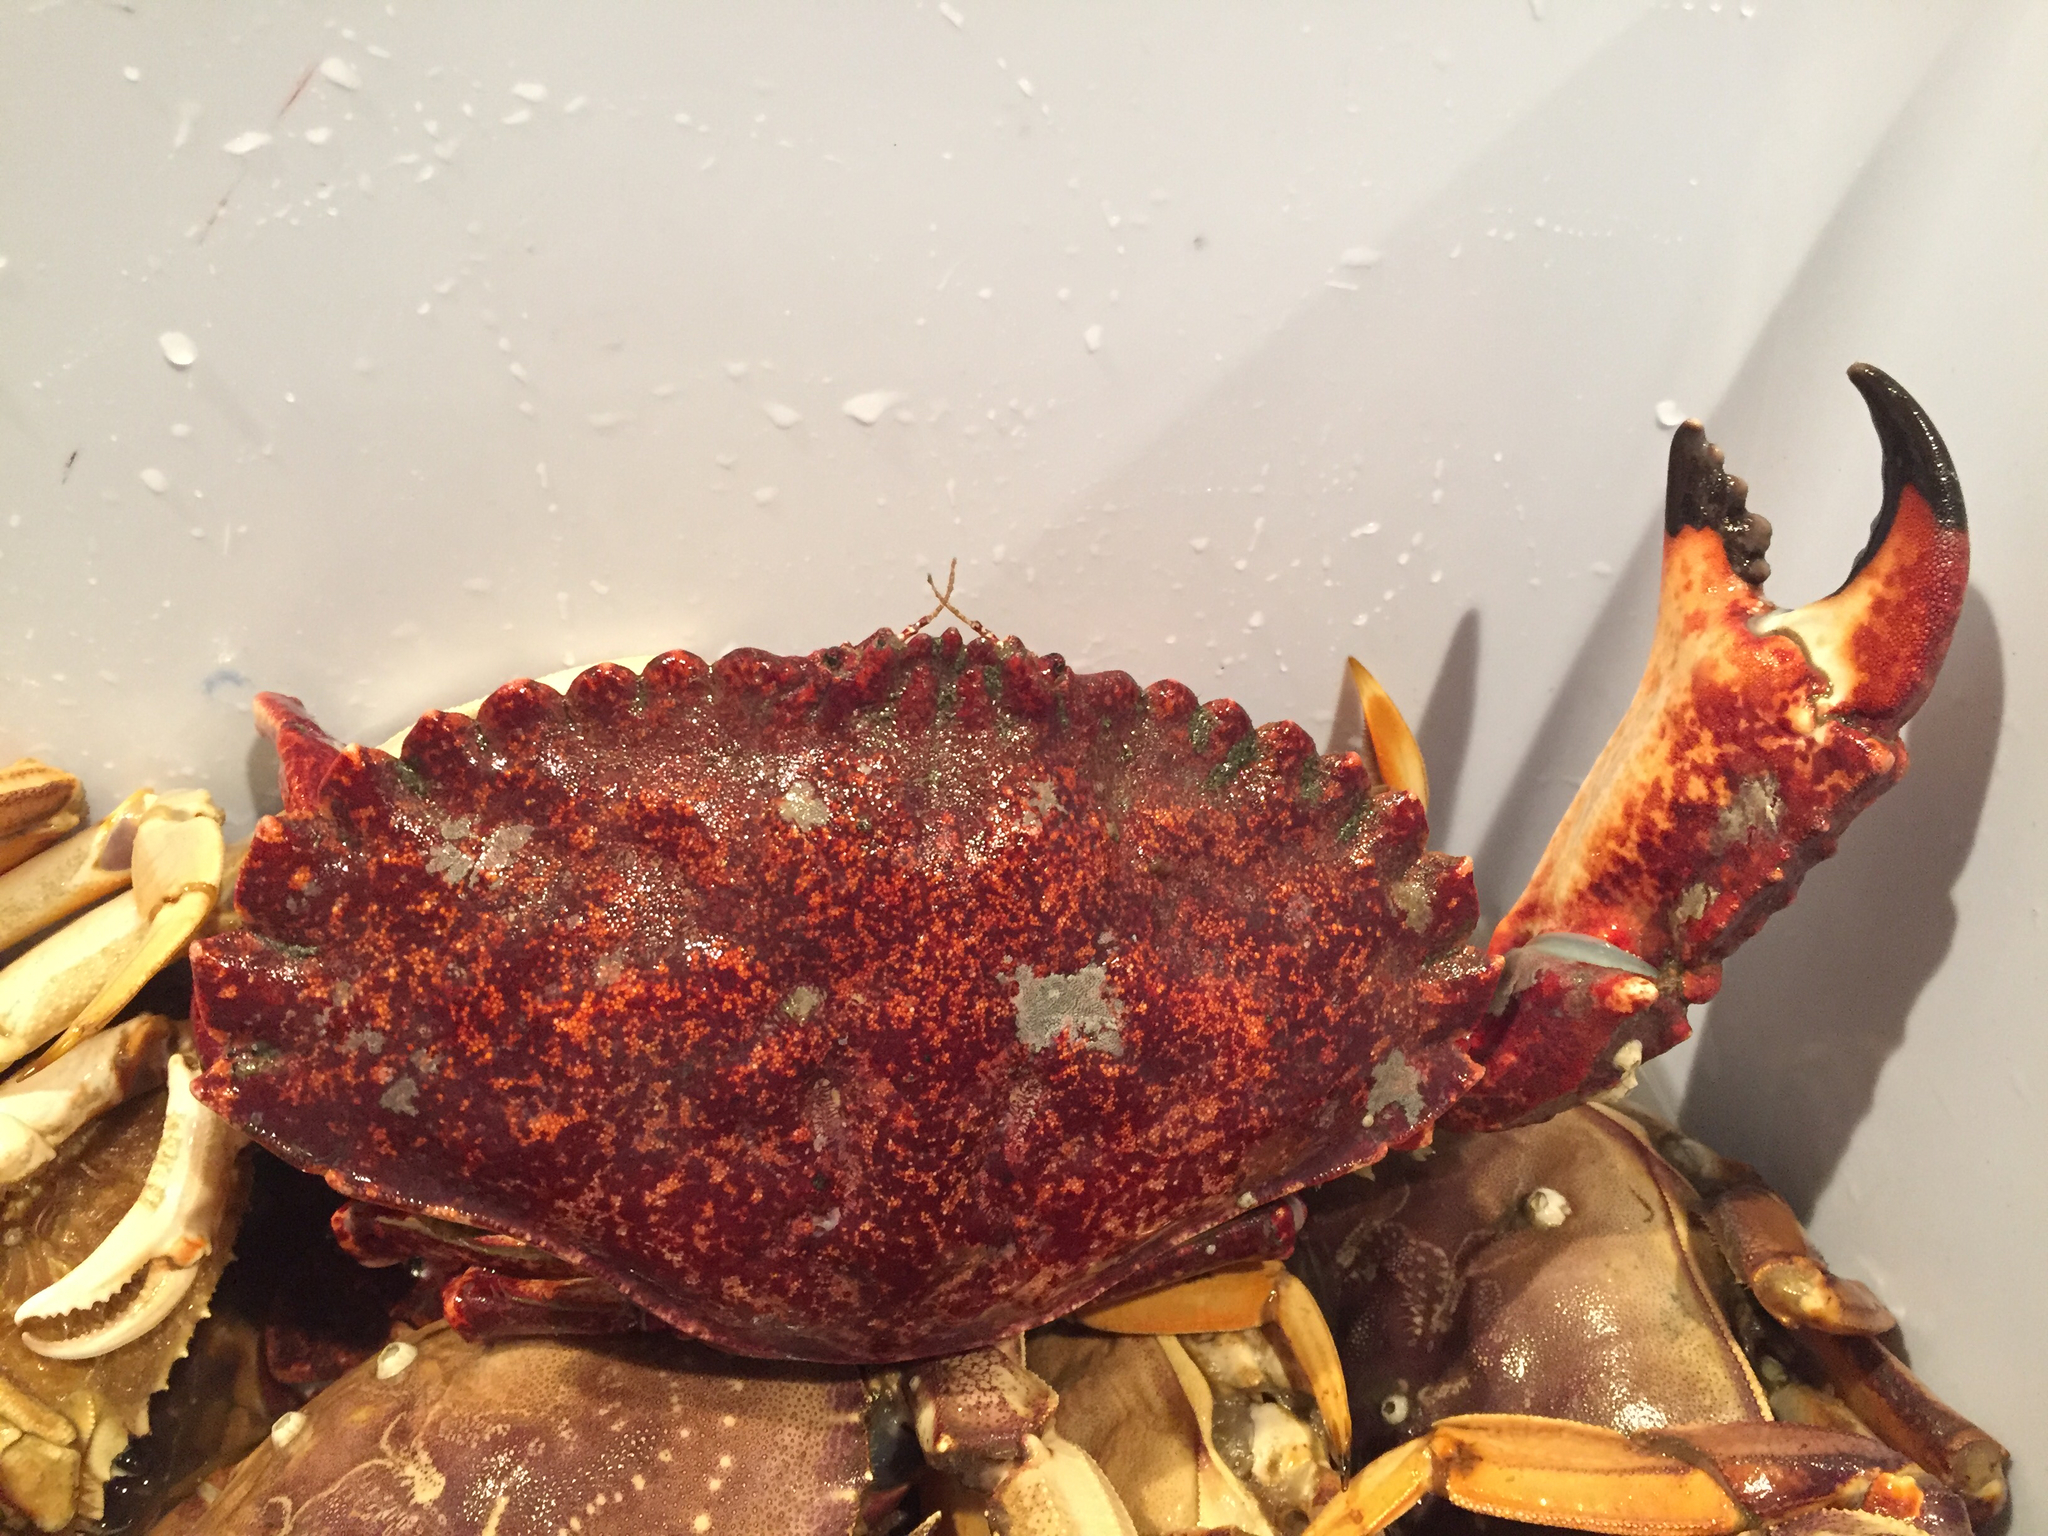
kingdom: Animalia
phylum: Arthropoda
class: Malacostraca
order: Decapoda
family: Cancridae
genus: Cancer
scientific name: Cancer productus
